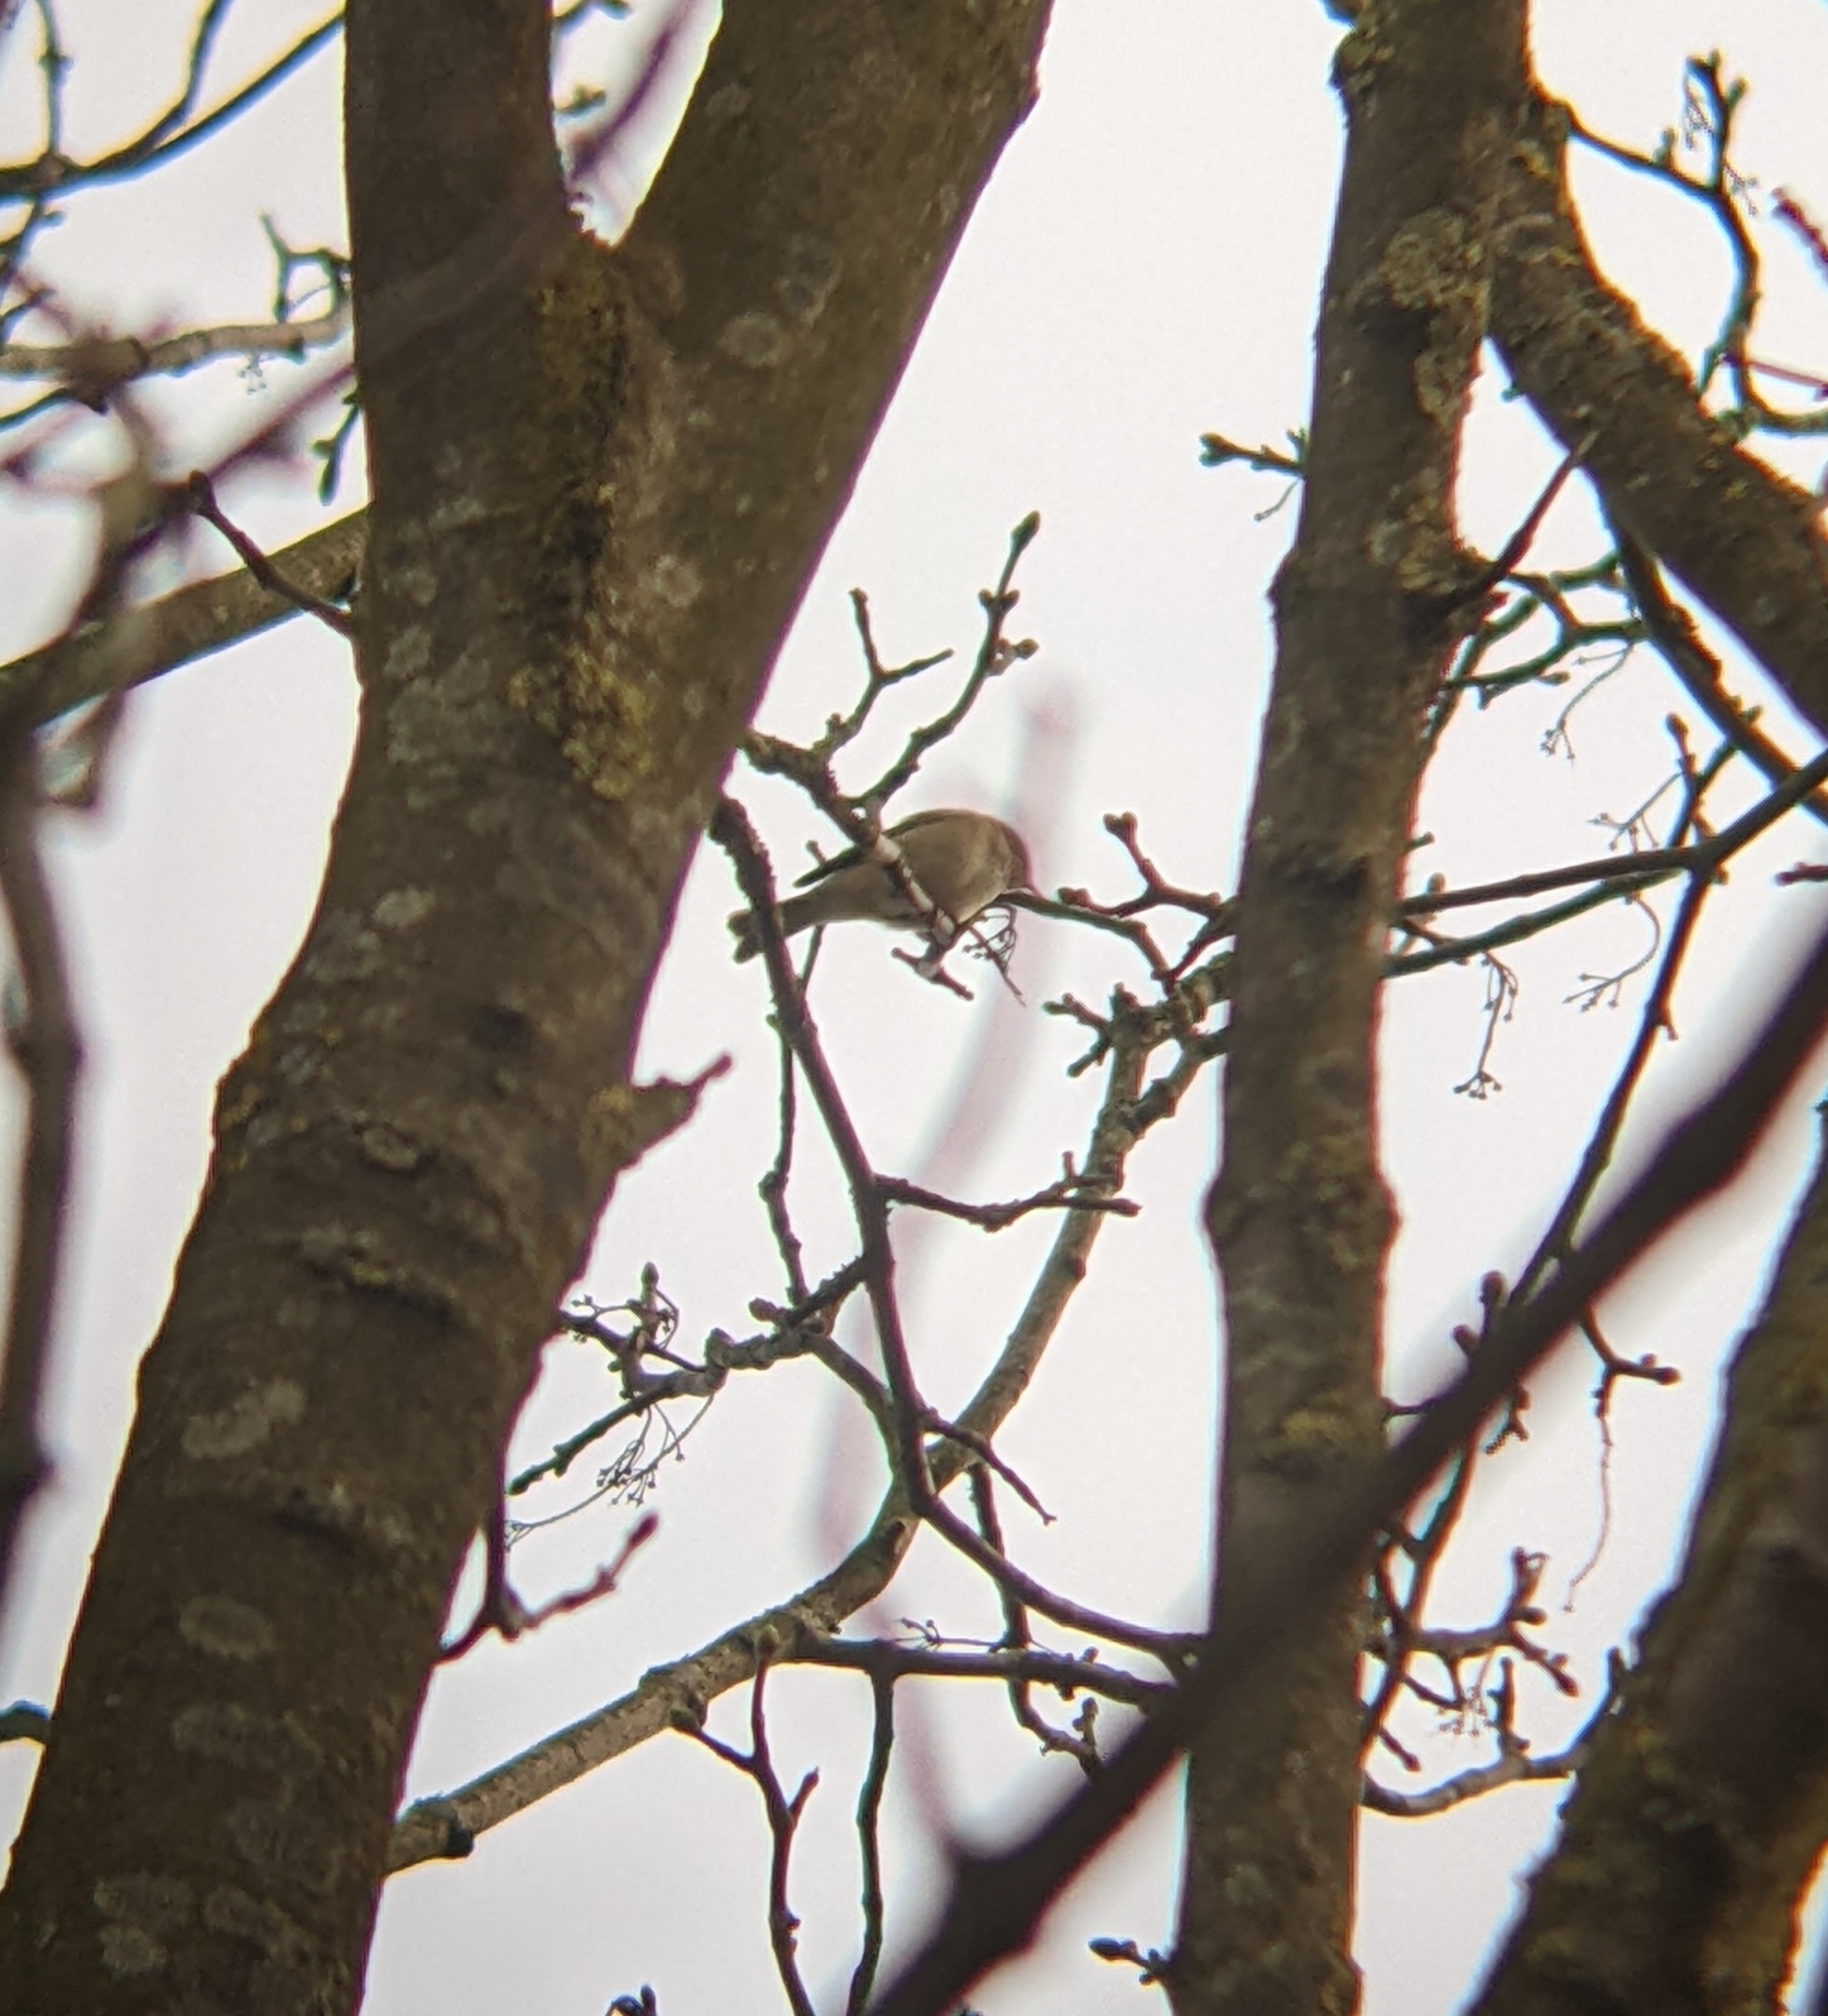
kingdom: Animalia
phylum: Chordata
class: Aves
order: Passeriformes
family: Phylloscopidae
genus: Phylloscopus
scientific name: Phylloscopus collybita
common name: Common chiffchaff
